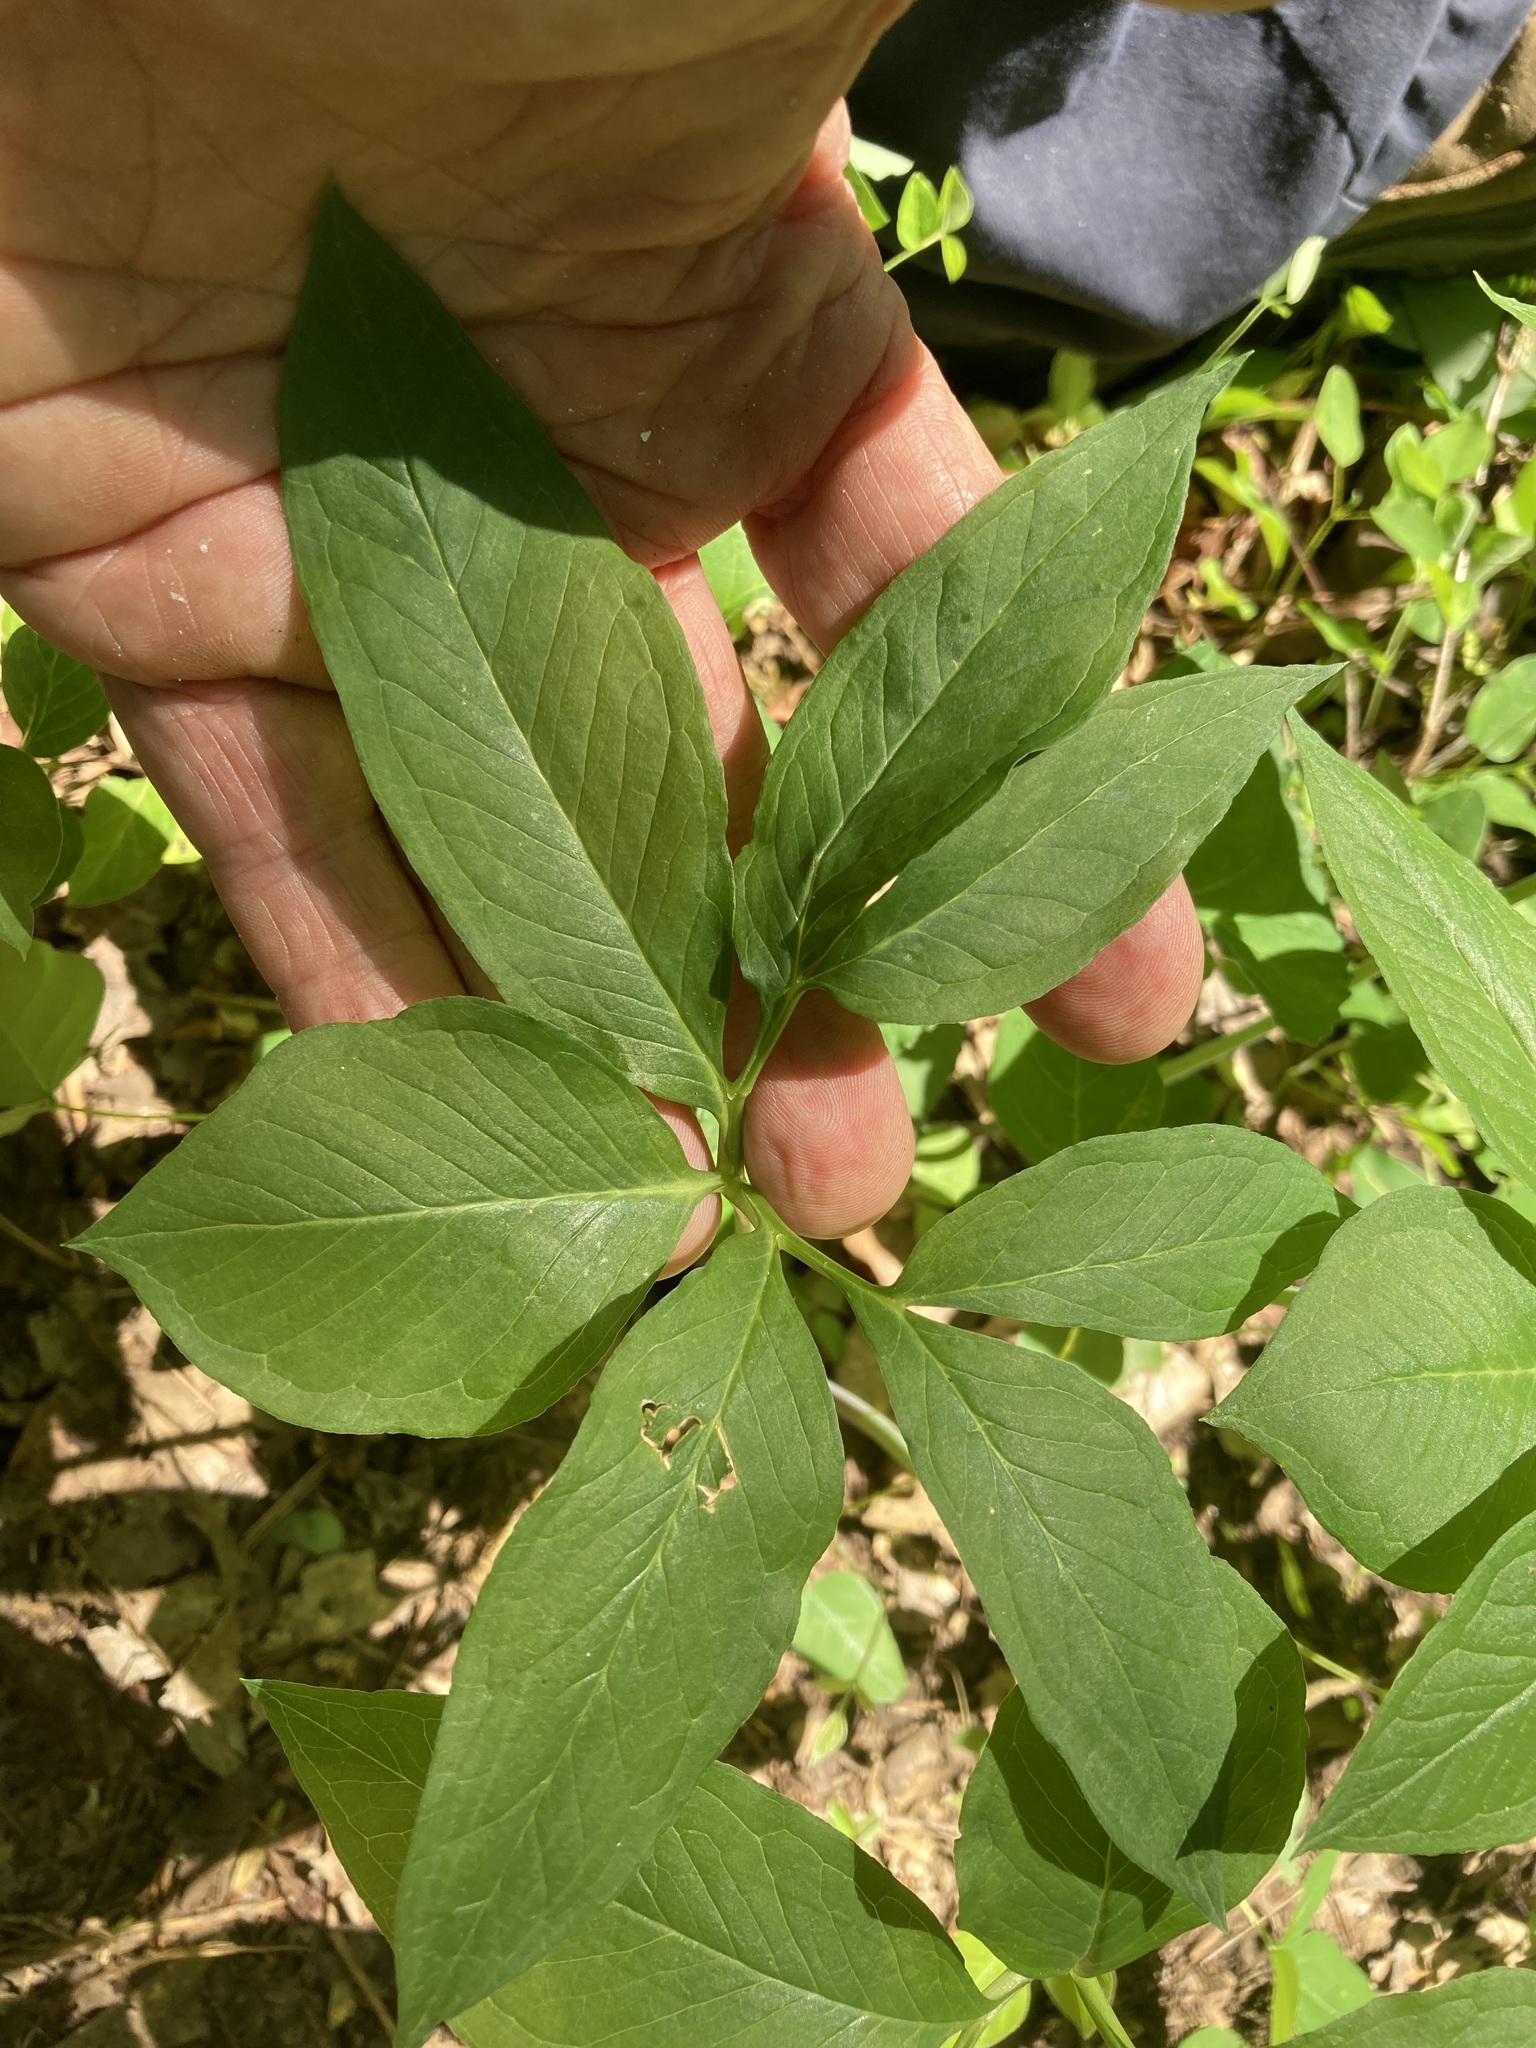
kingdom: Plantae
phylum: Tracheophyta
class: Liliopsida
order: Alismatales
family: Araceae
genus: Arisaema
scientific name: Arisaema dracontium
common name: Dragon-arum
